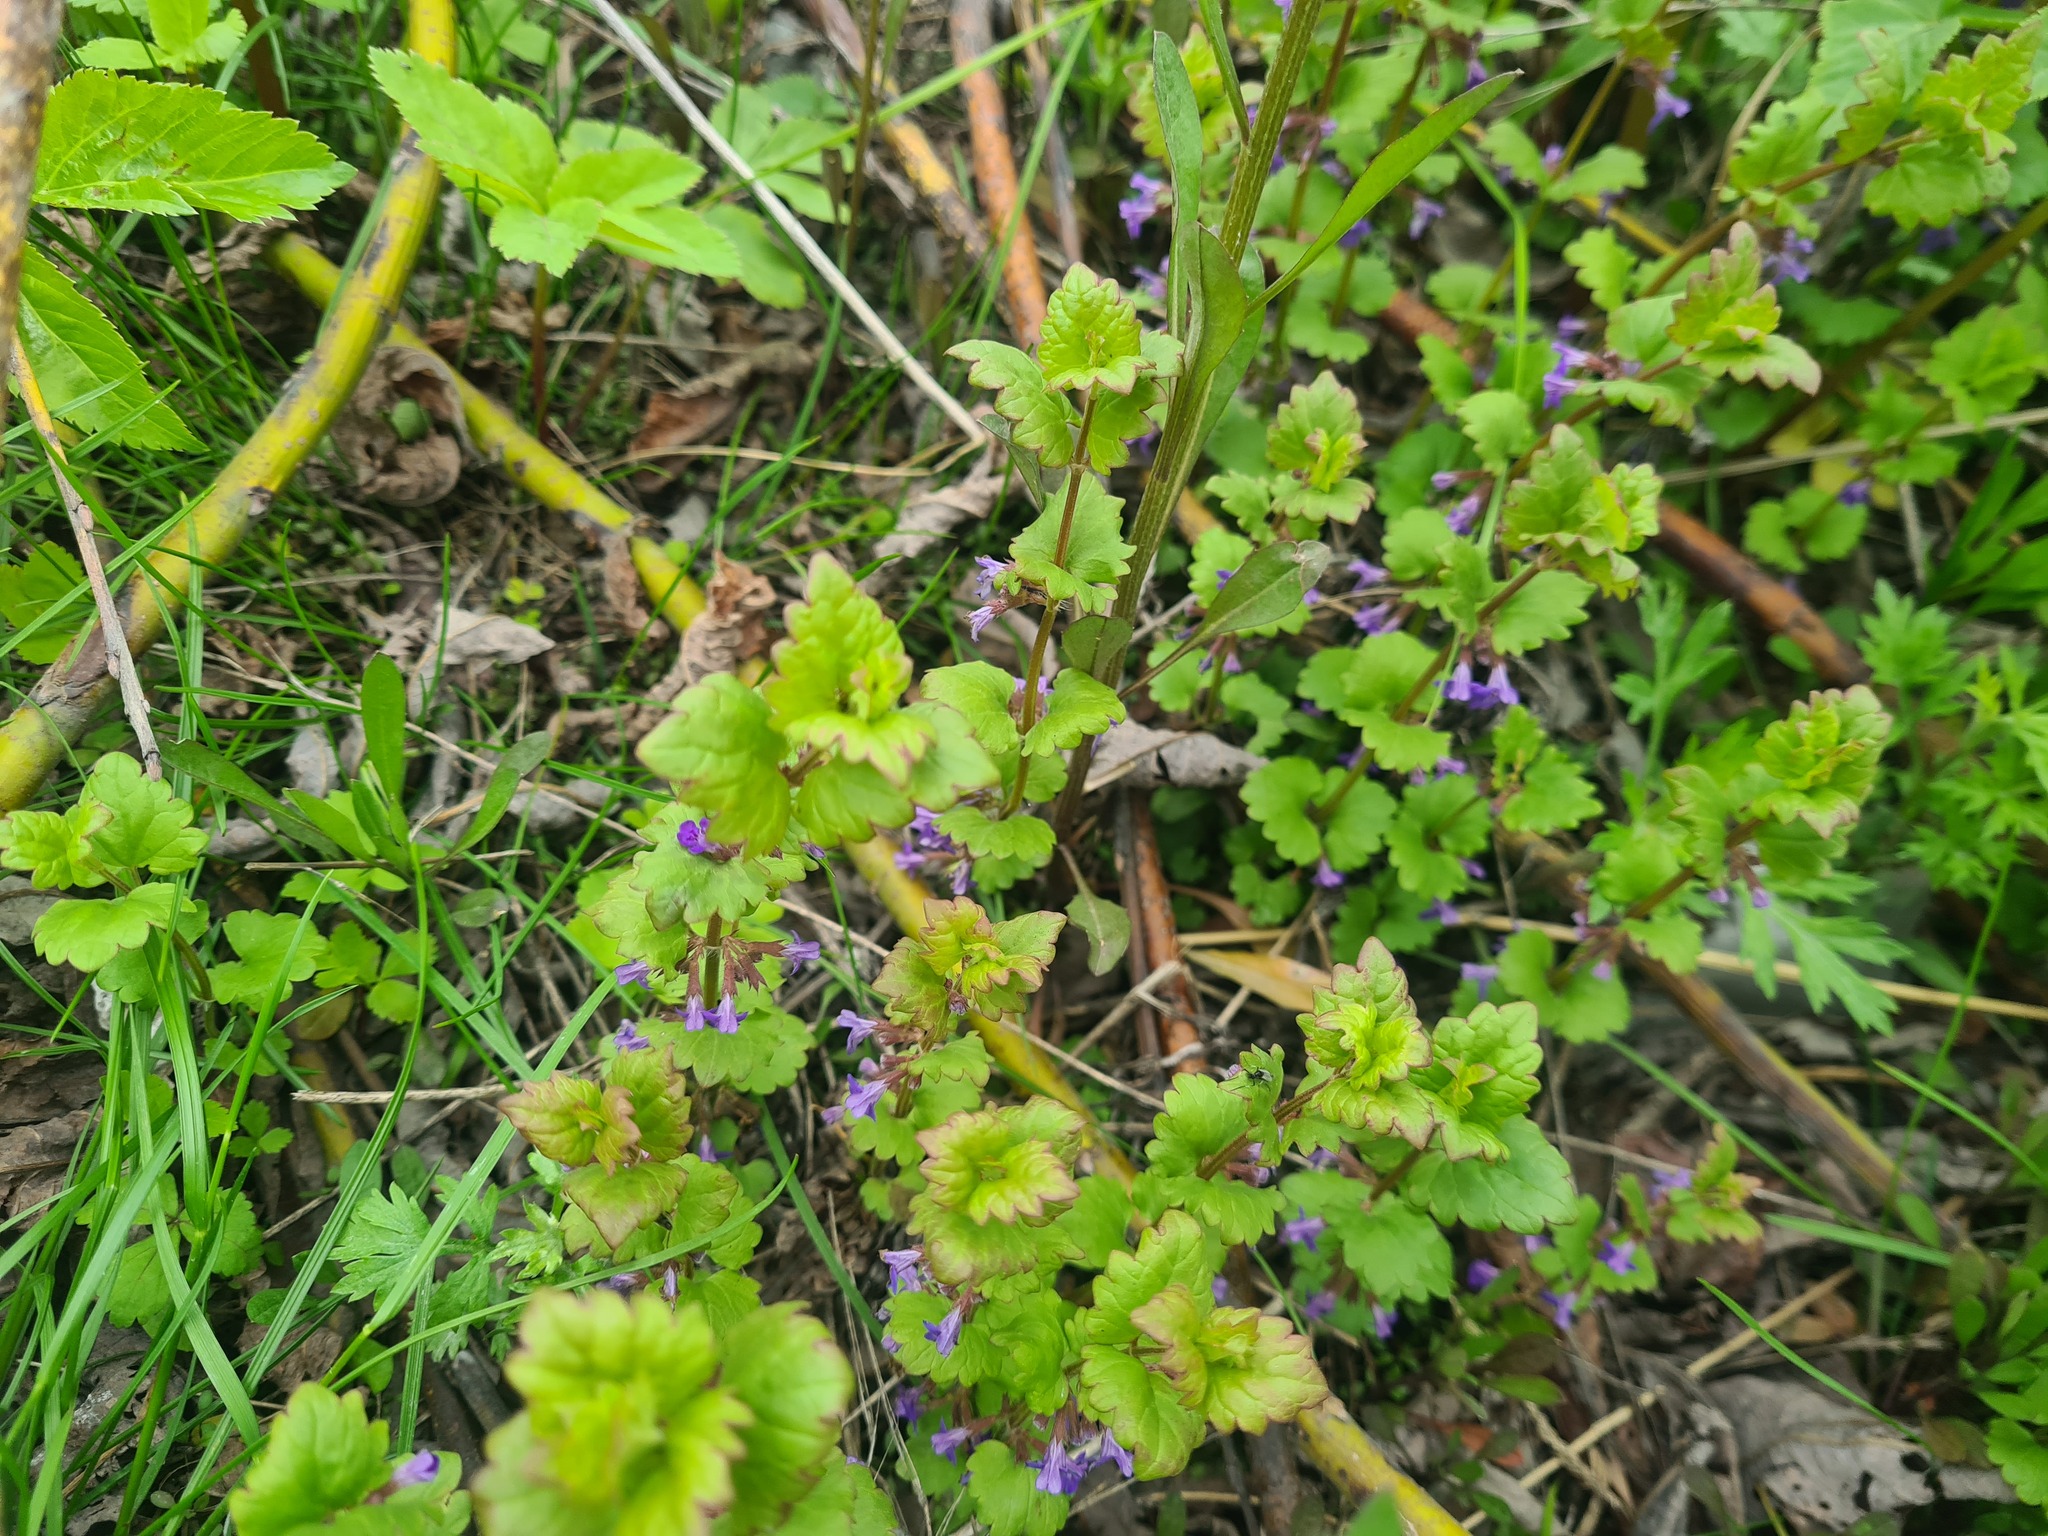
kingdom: Plantae
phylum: Tracheophyta
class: Magnoliopsida
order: Lamiales
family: Lamiaceae
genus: Glechoma
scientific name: Glechoma hederacea
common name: Ground ivy
